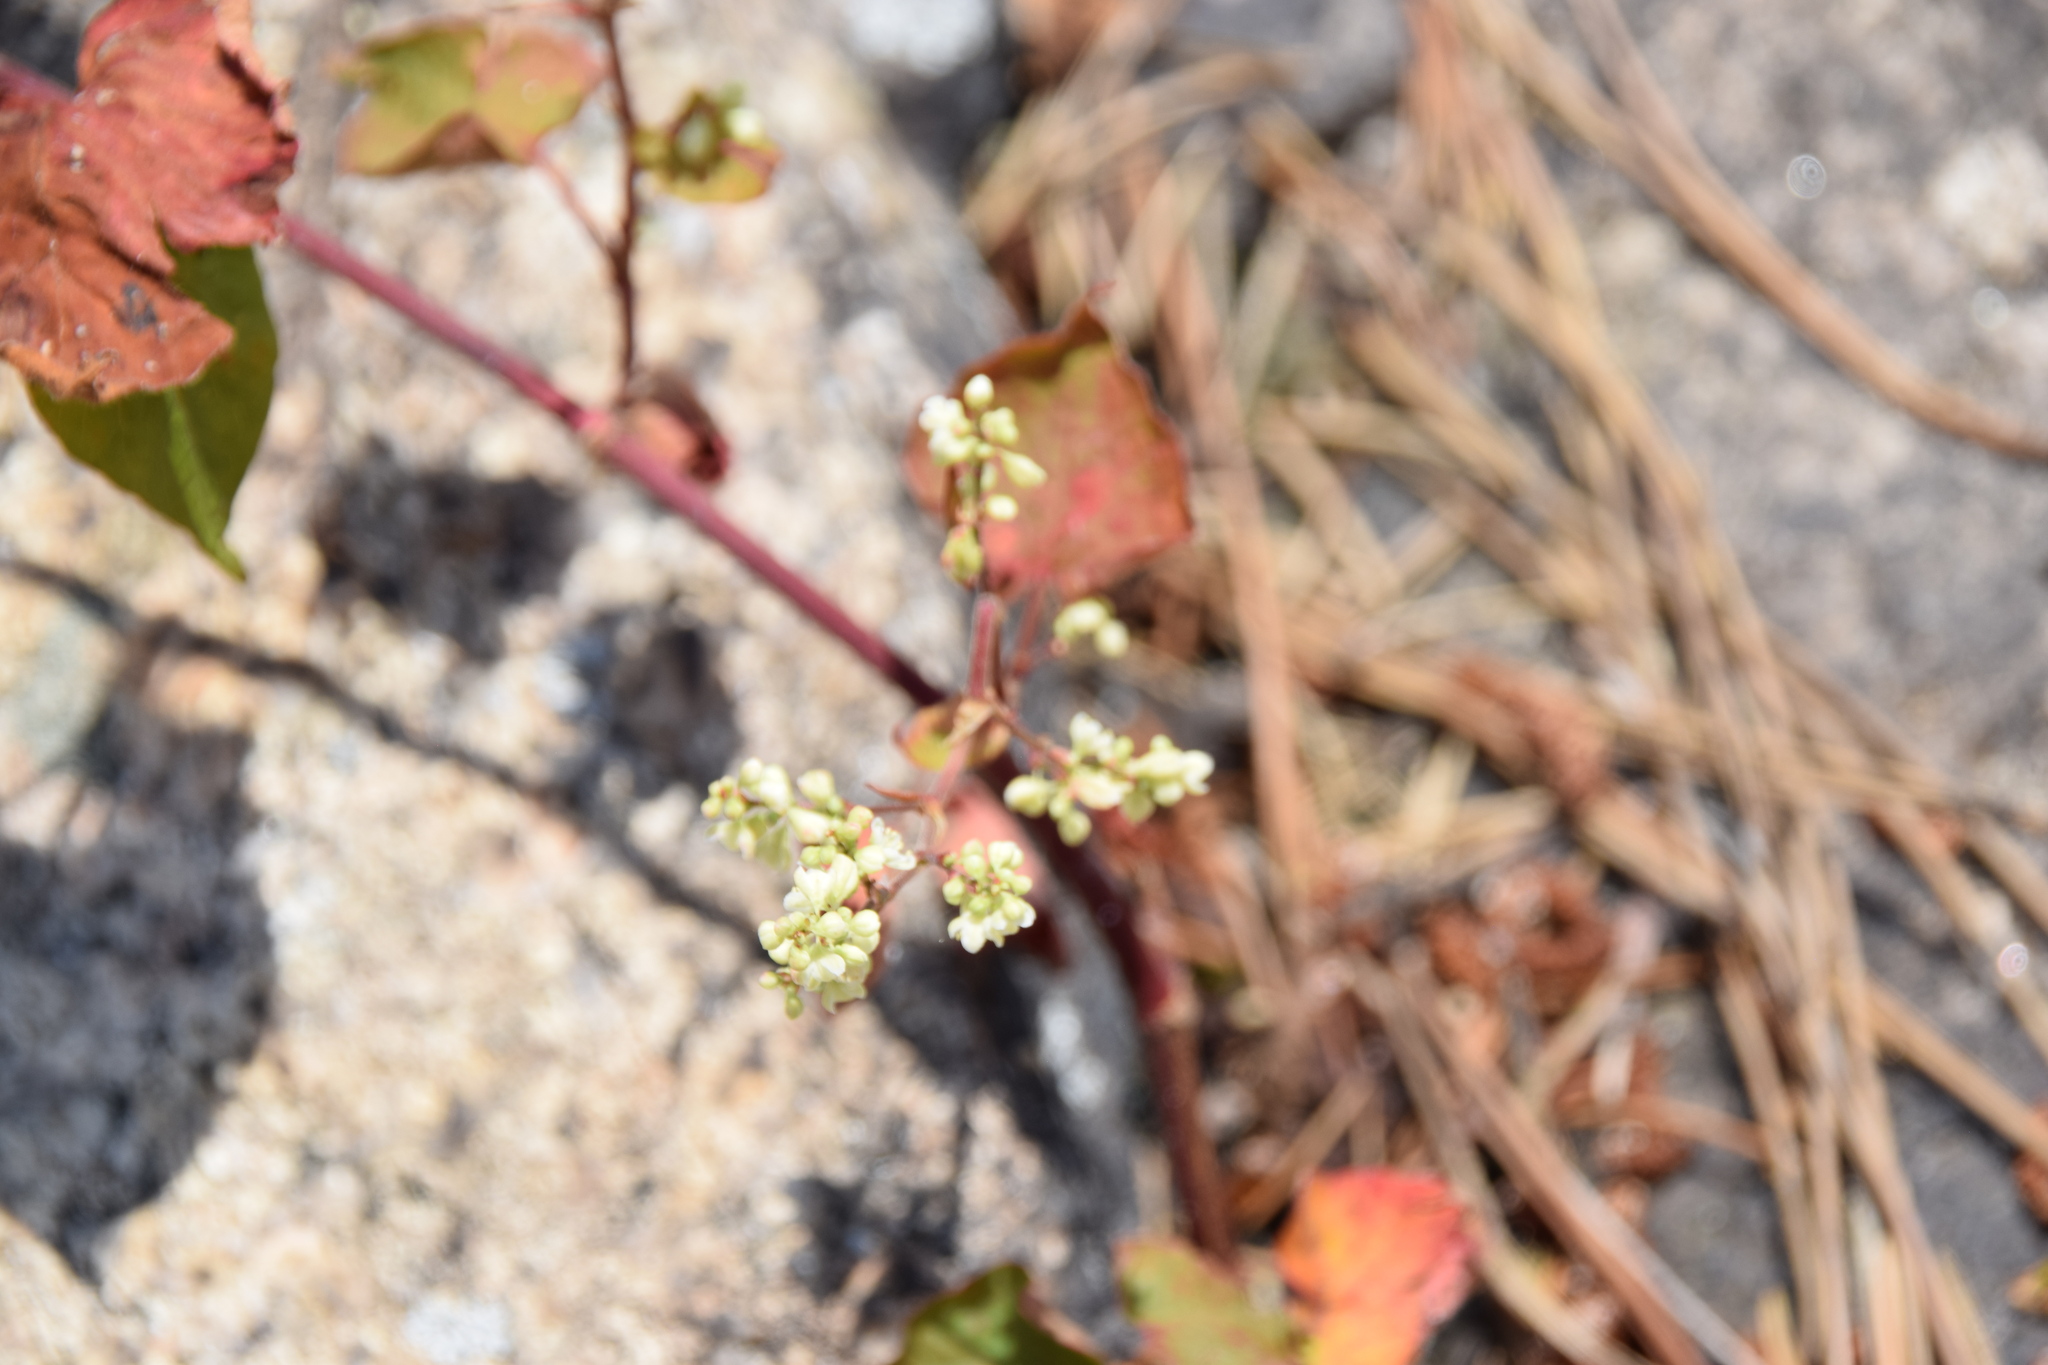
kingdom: Plantae
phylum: Tracheophyta
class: Magnoliopsida
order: Caryophyllales
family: Polygonaceae
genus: Parogonum
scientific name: Parogonum ciliinode
